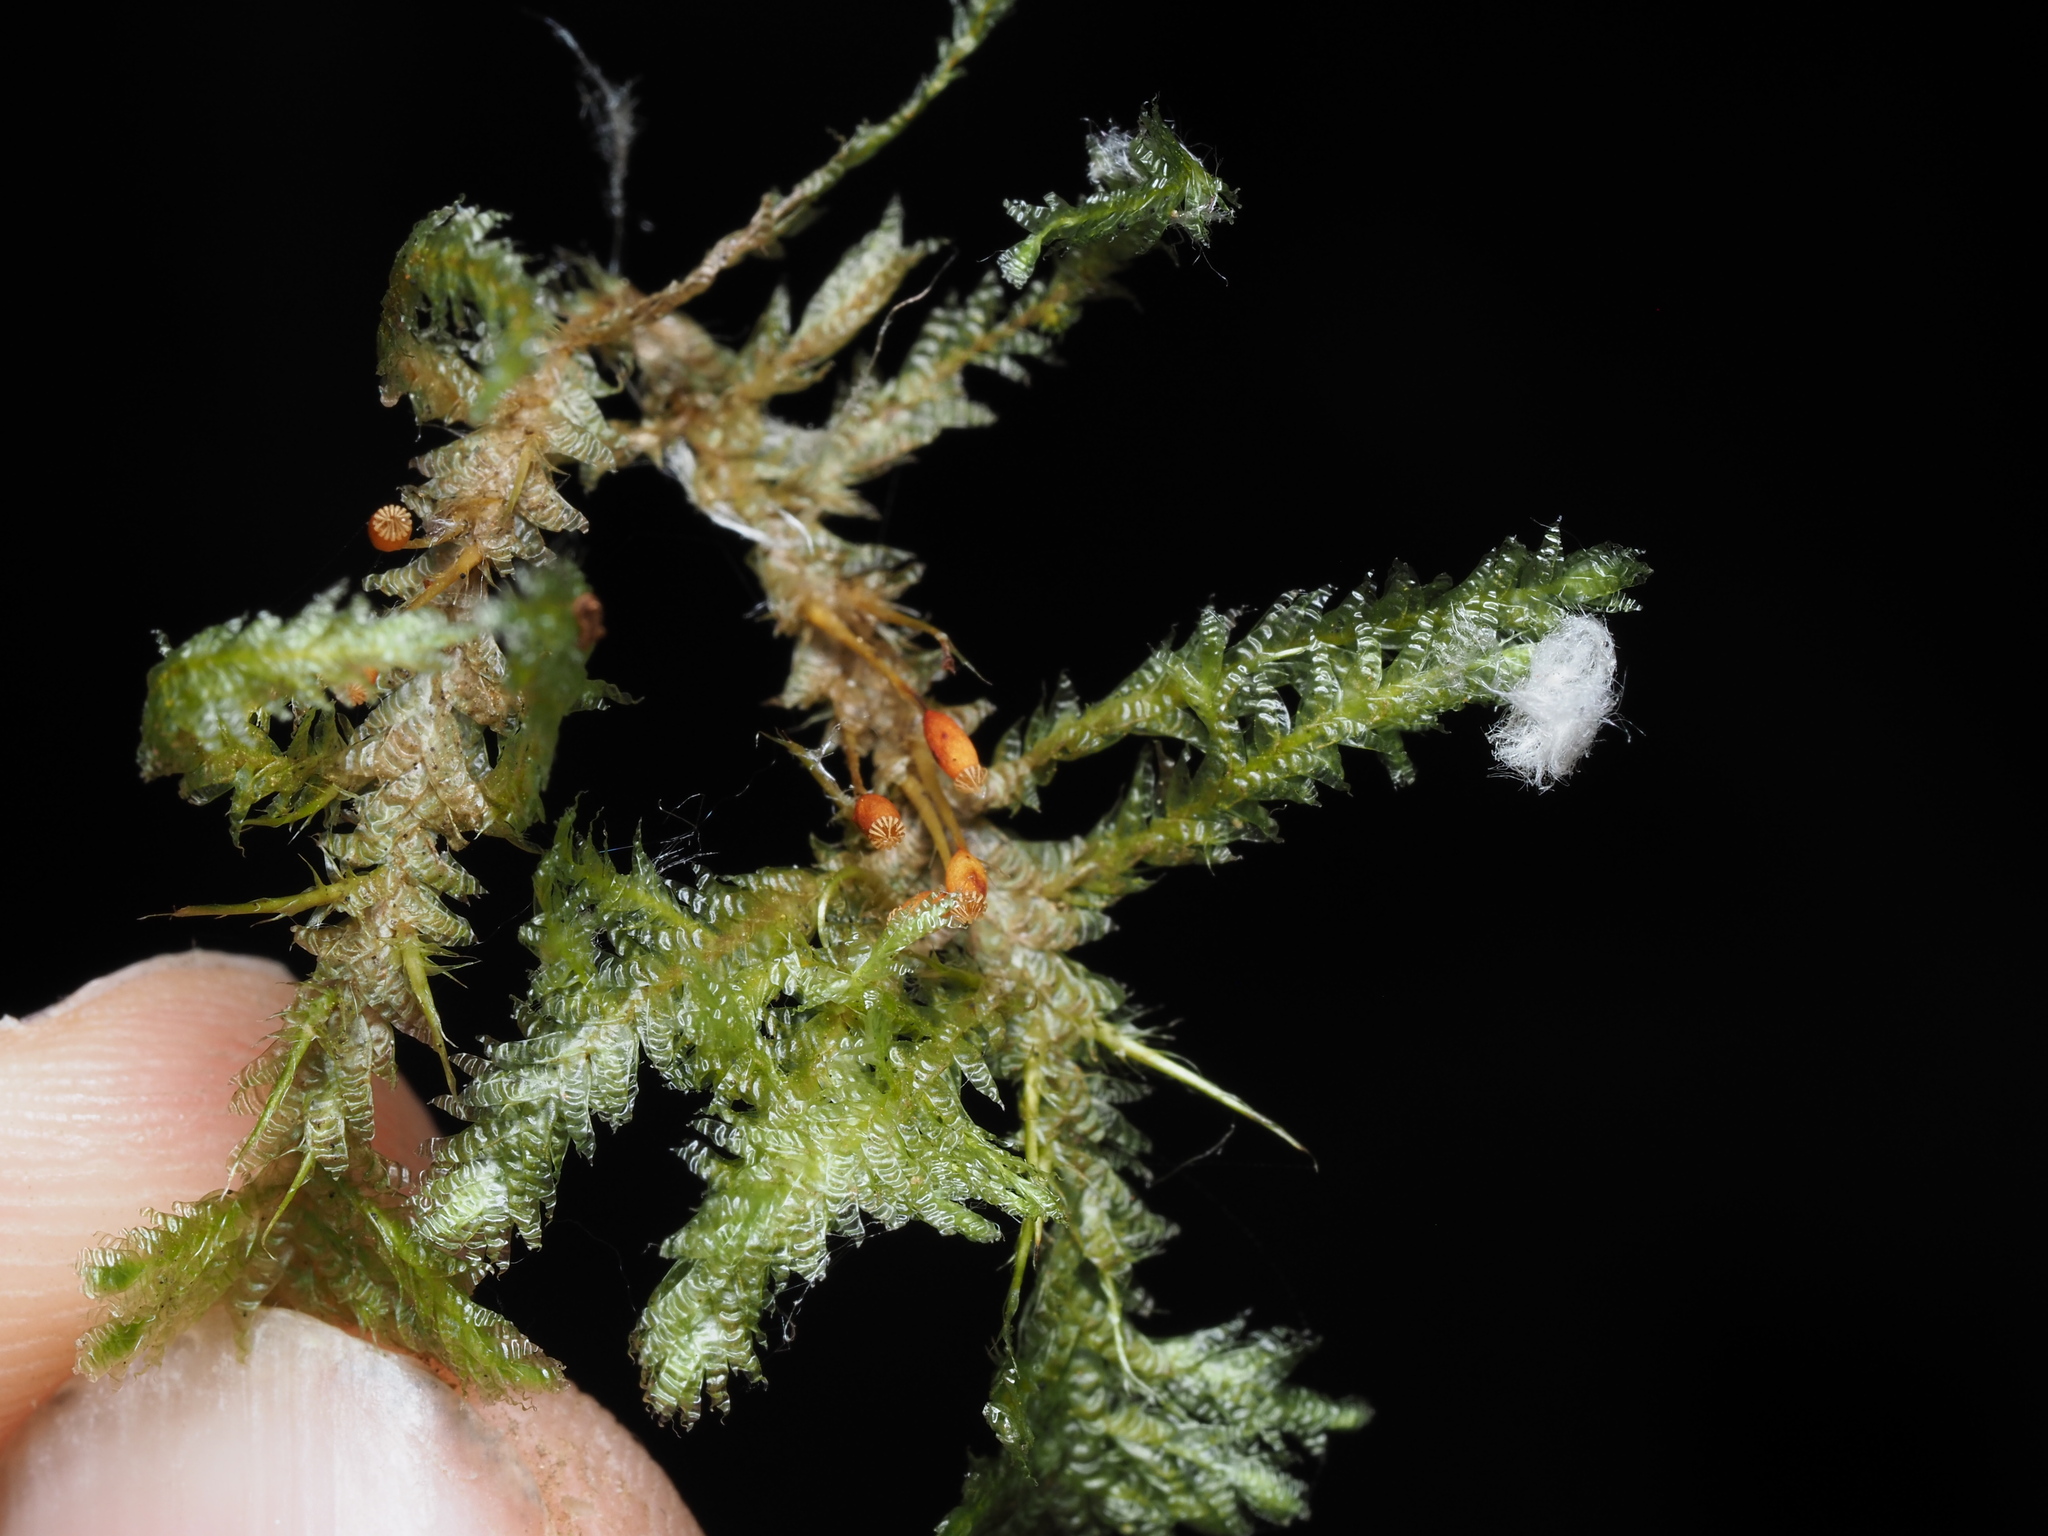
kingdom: Plantae
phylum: Bryophyta
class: Bryopsida
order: Hypnales
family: Neckeraceae
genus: Neckera
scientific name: Neckera douglasii
